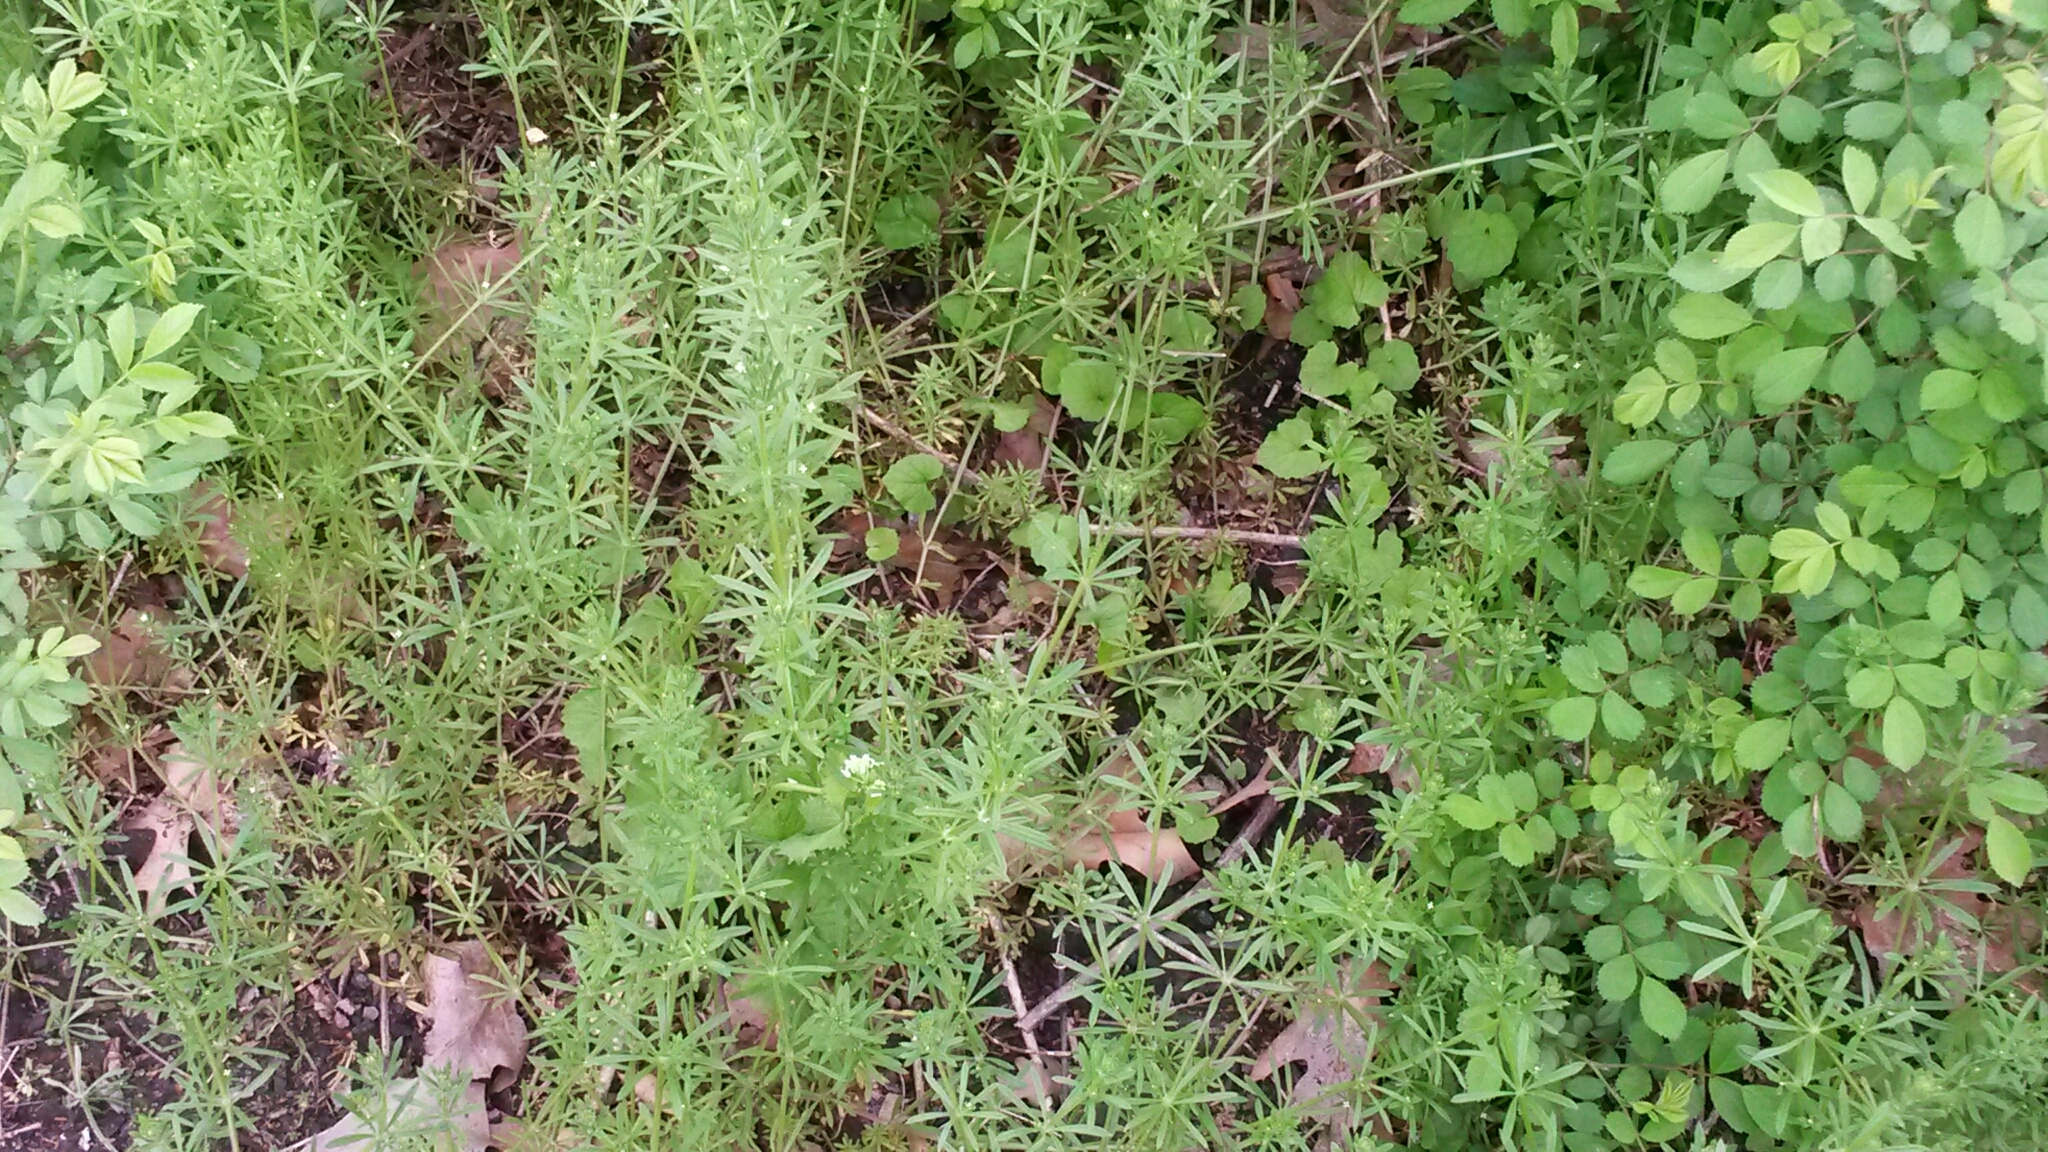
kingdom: Plantae
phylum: Tracheophyta
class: Magnoliopsida
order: Gentianales
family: Rubiaceae
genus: Galium
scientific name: Galium aparine
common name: Cleavers
